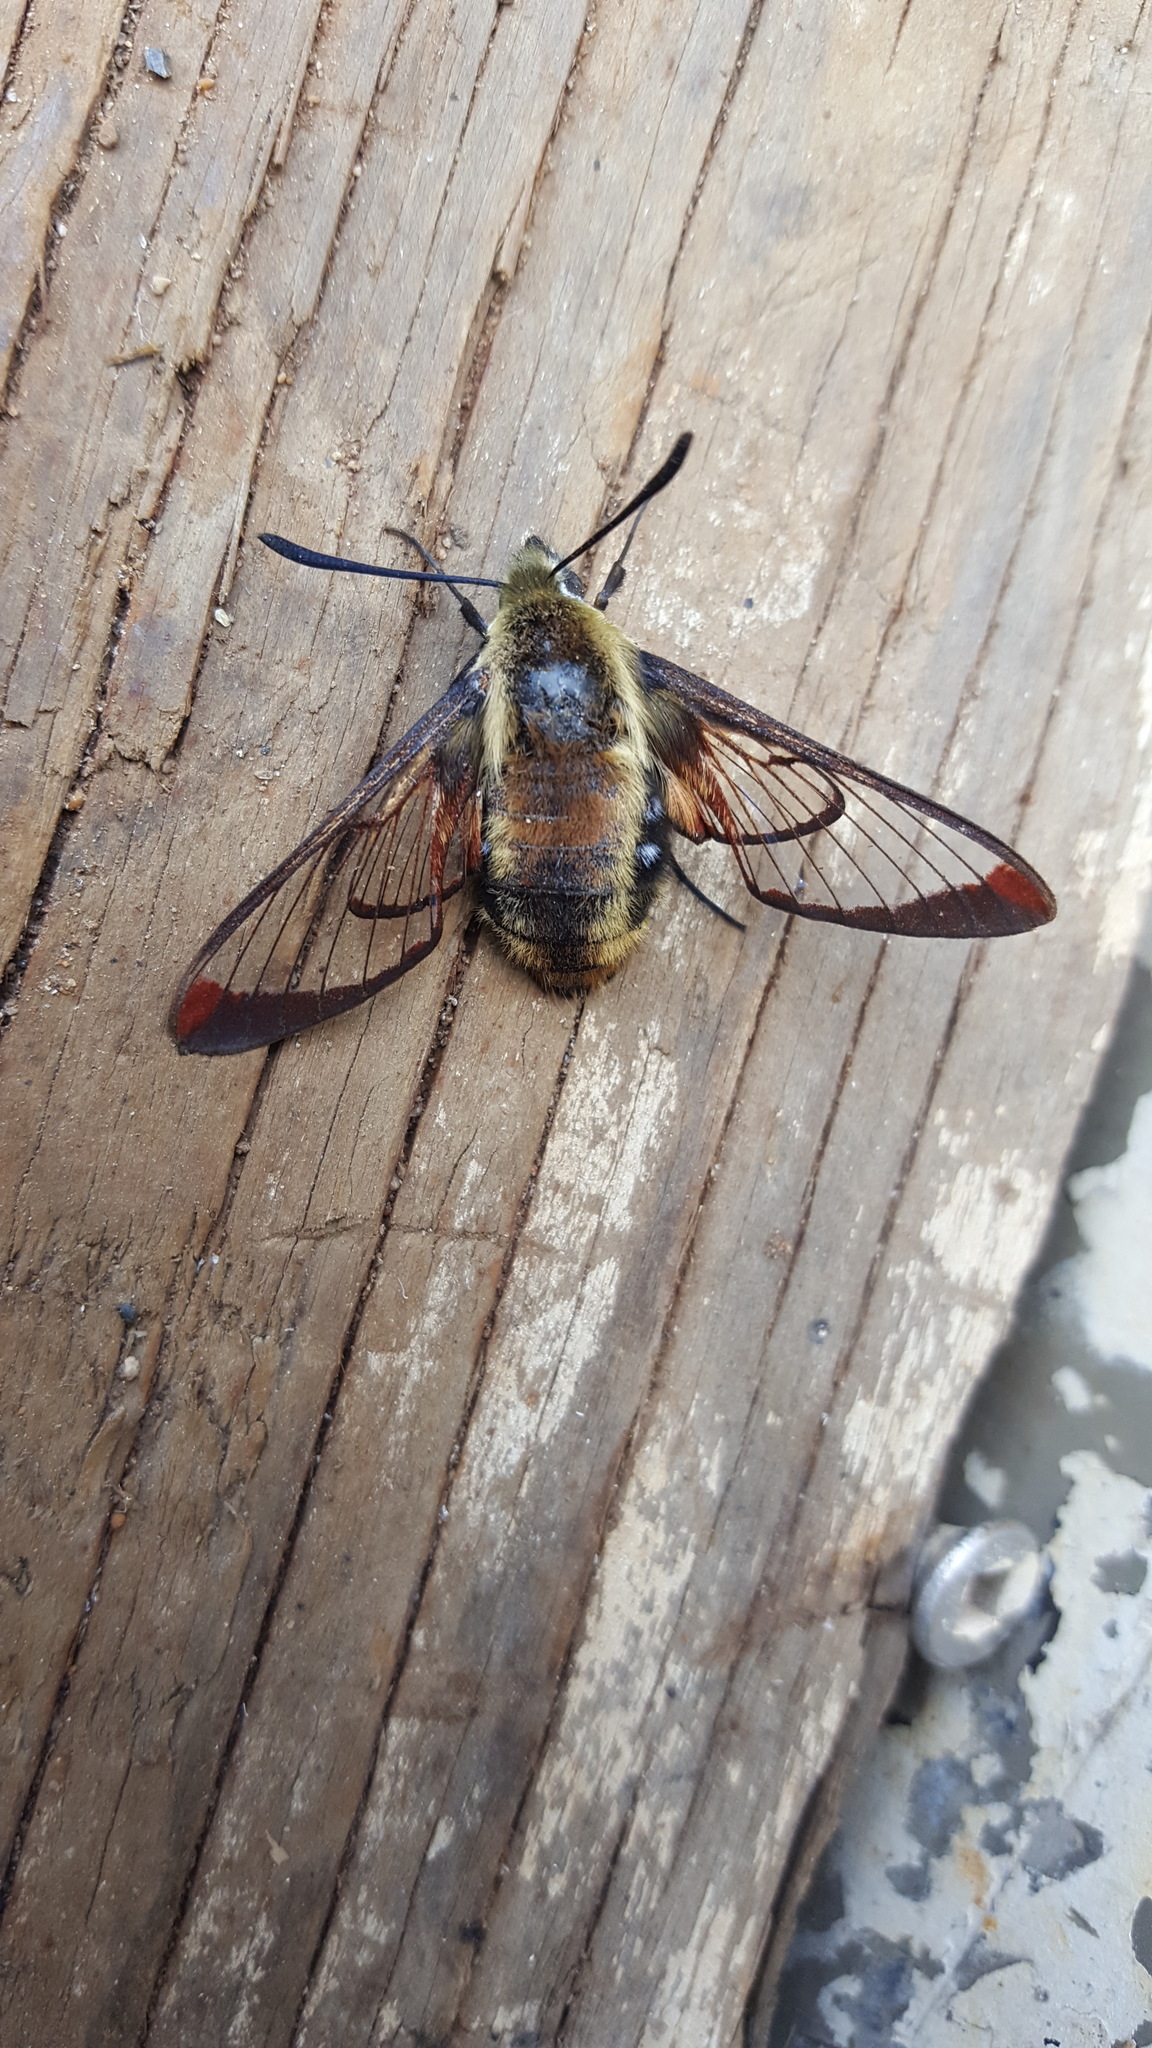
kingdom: Animalia
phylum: Arthropoda
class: Insecta
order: Lepidoptera
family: Sphingidae
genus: Hemaris
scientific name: Hemaris diffinis
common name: Bumblebee moth
